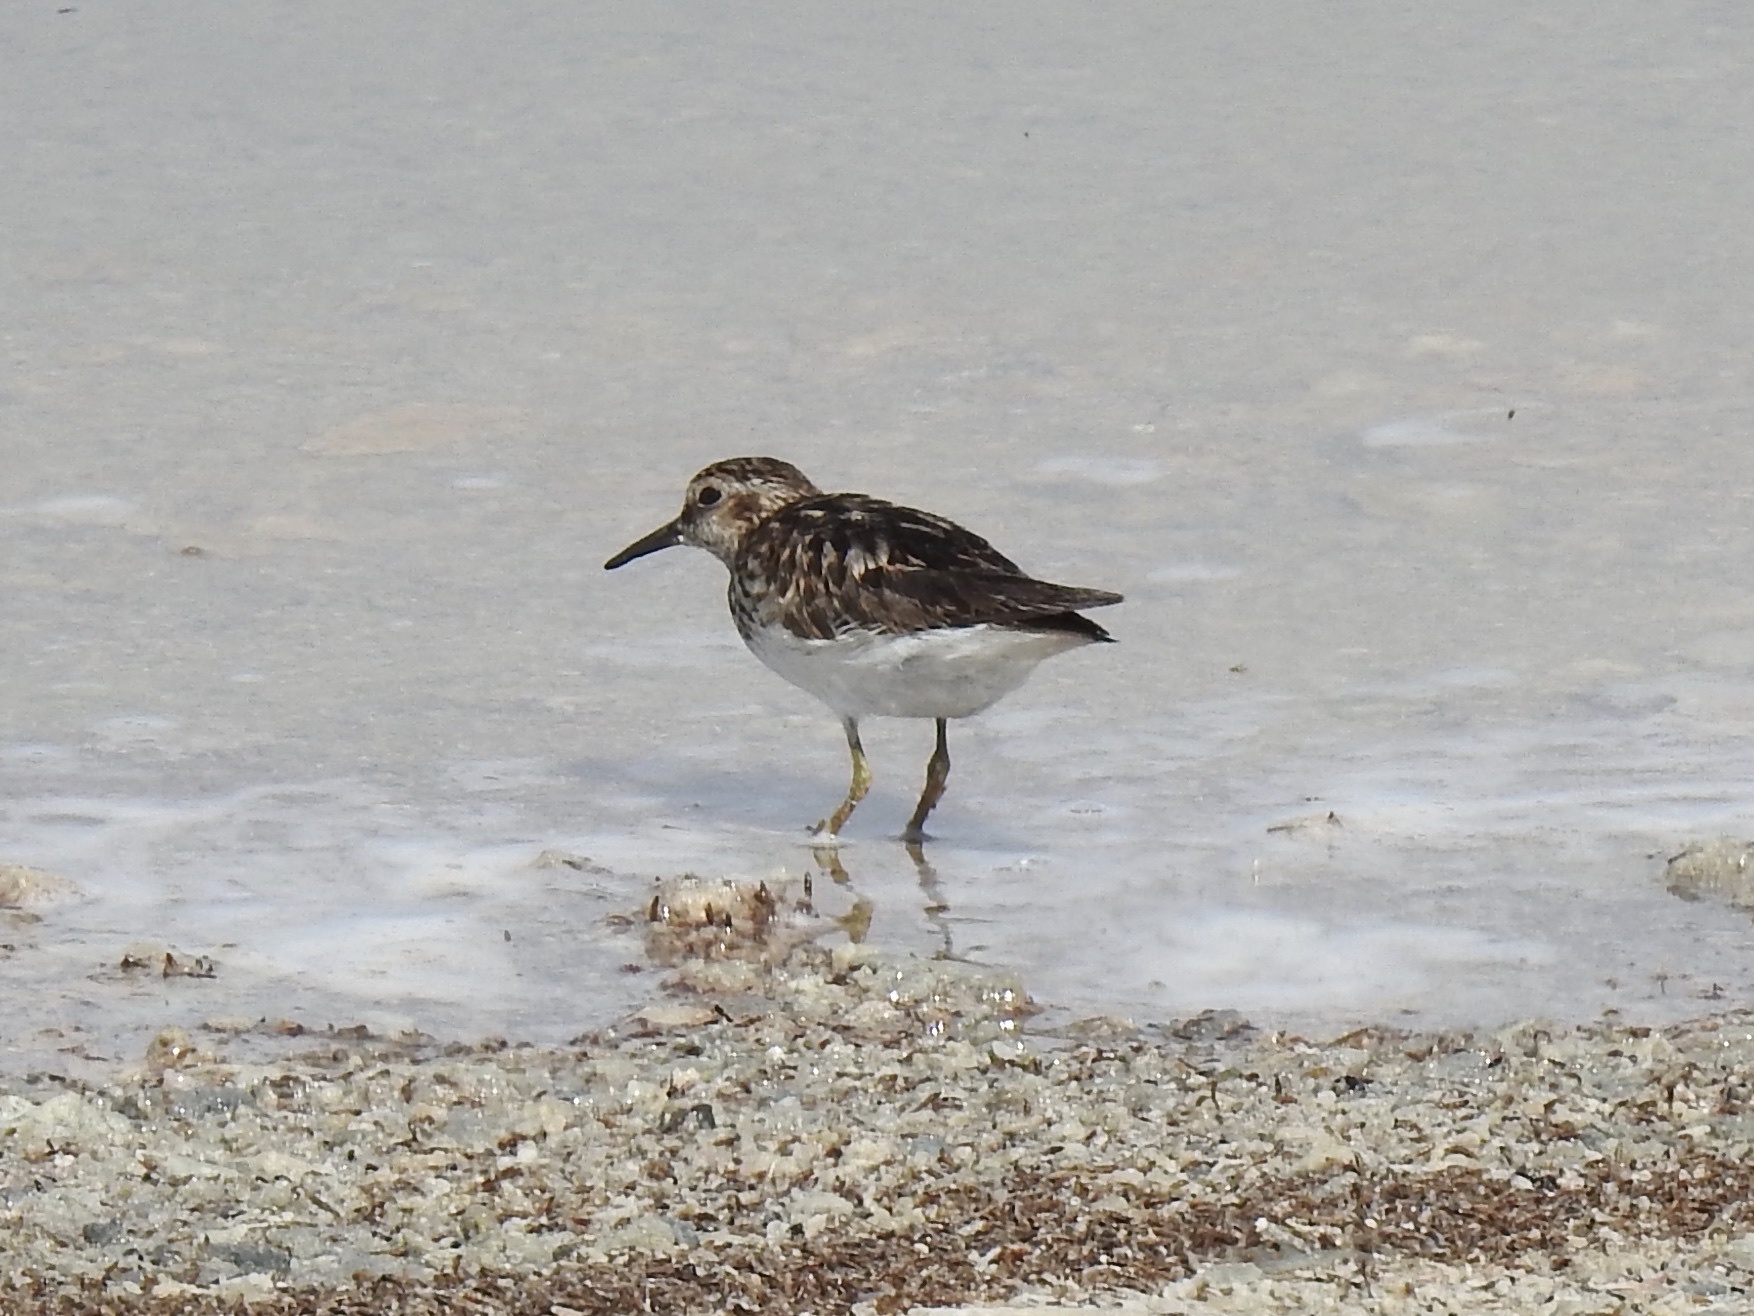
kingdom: Animalia
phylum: Chordata
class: Aves
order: Charadriiformes
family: Scolopacidae
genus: Calidris
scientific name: Calidris minutilla
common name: Least sandpiper
